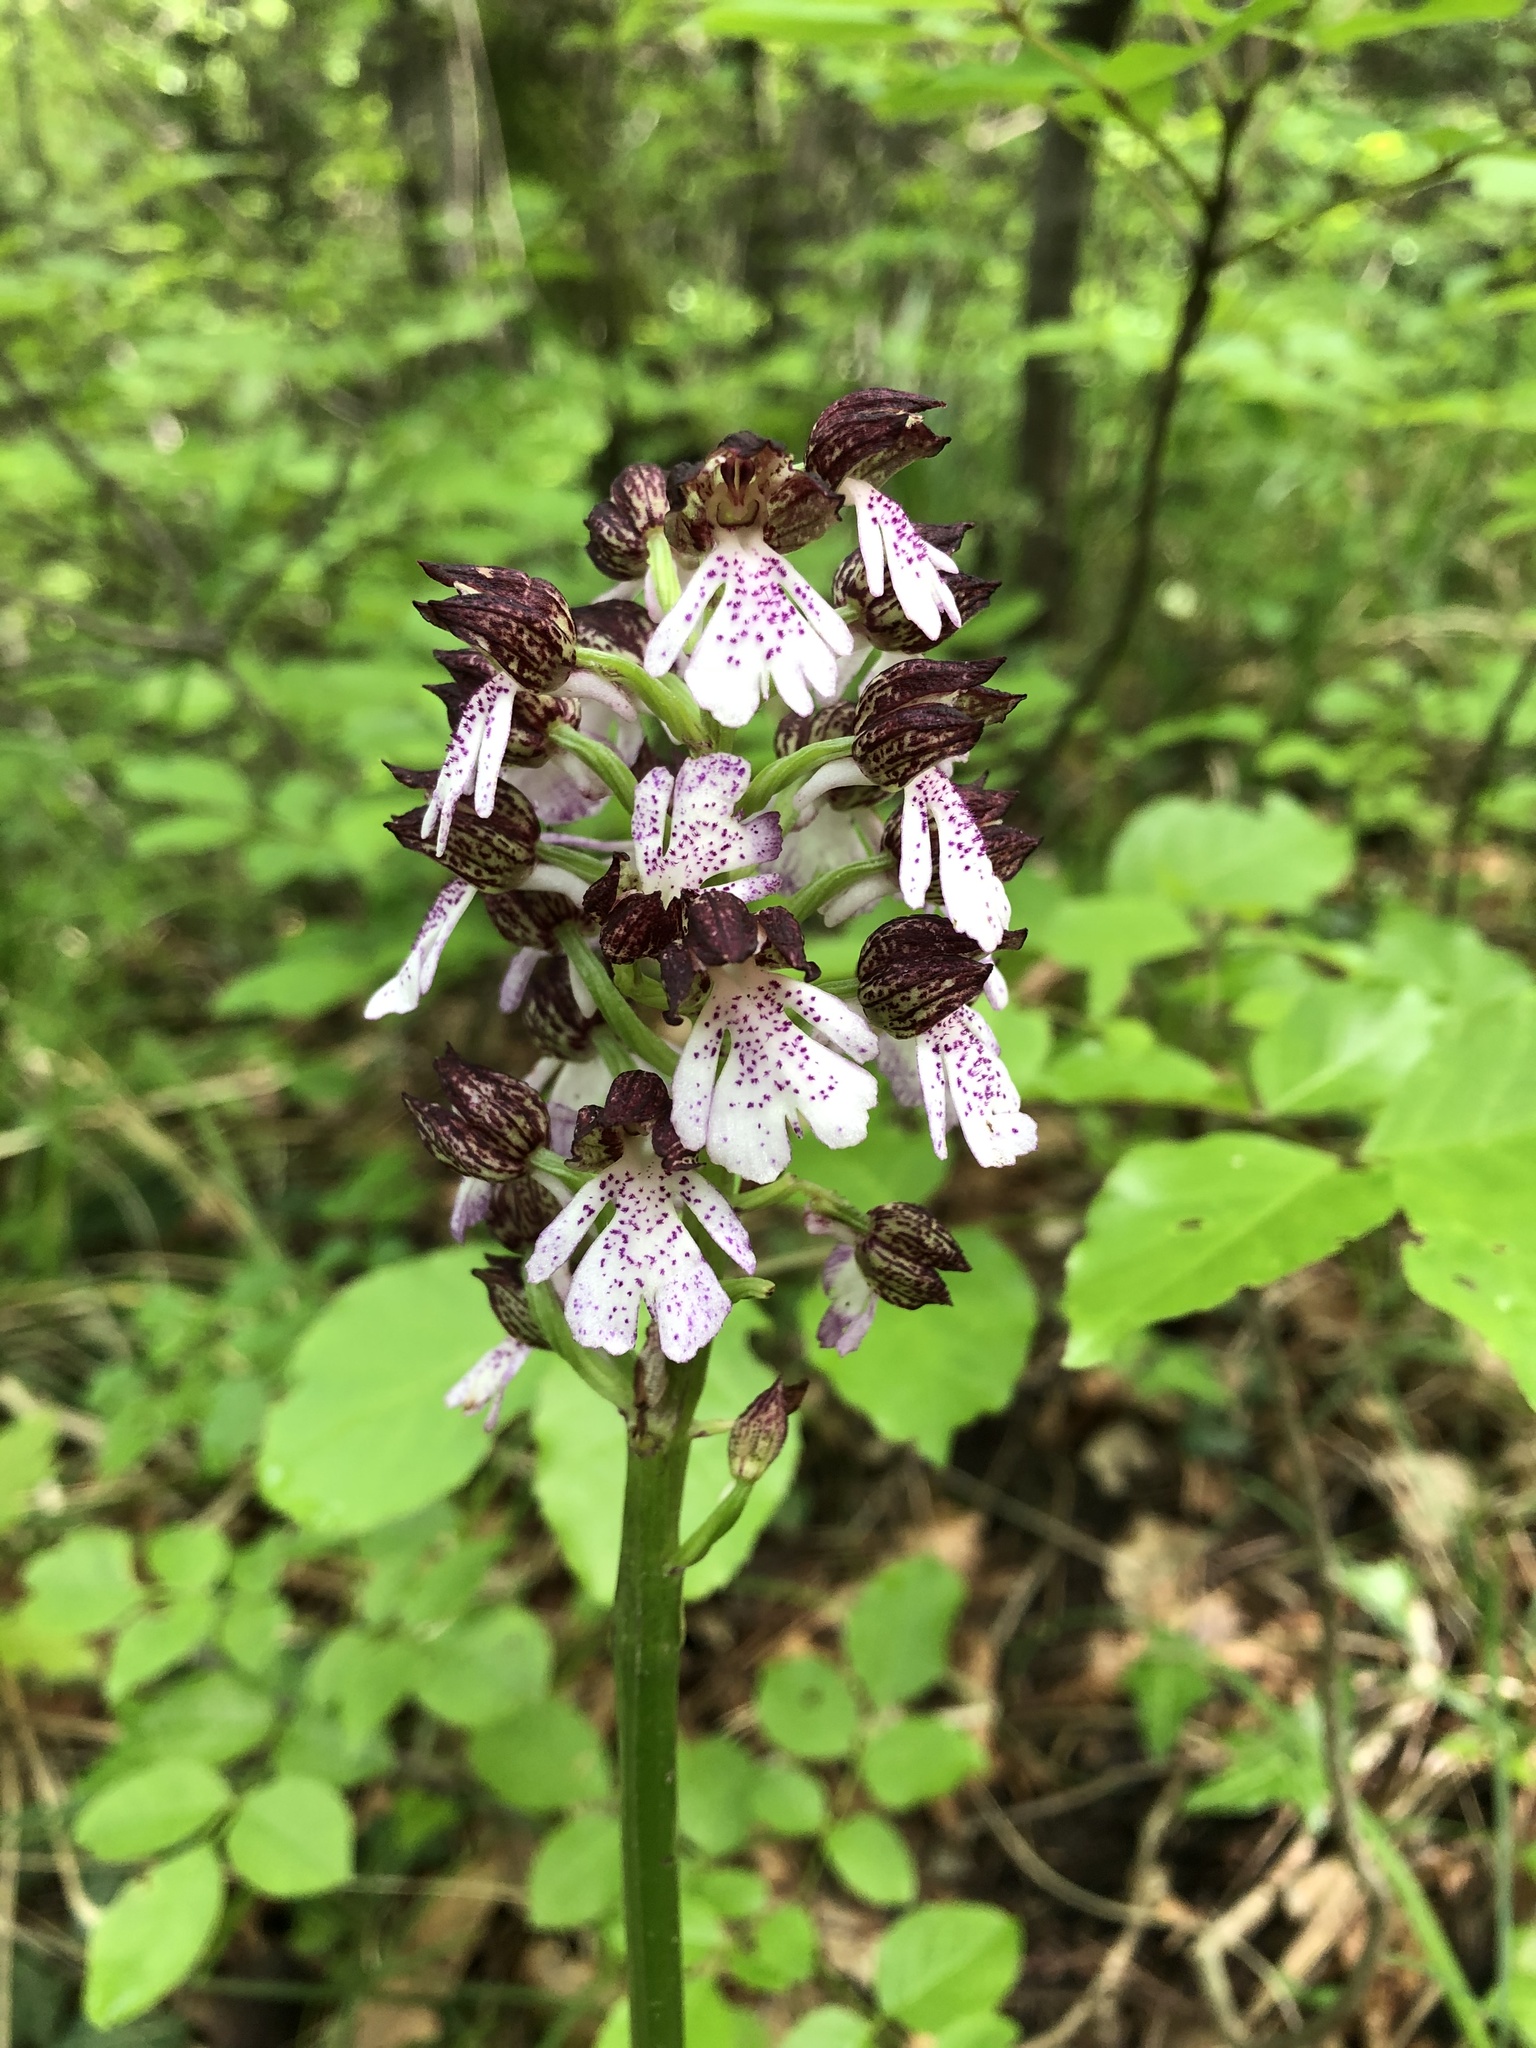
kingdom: Plantae
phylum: Tracheophyta
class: Liliopsida
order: Asparagales
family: Orchidaceae
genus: Orchis
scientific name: Orchis purpurea
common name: Lady orchid
